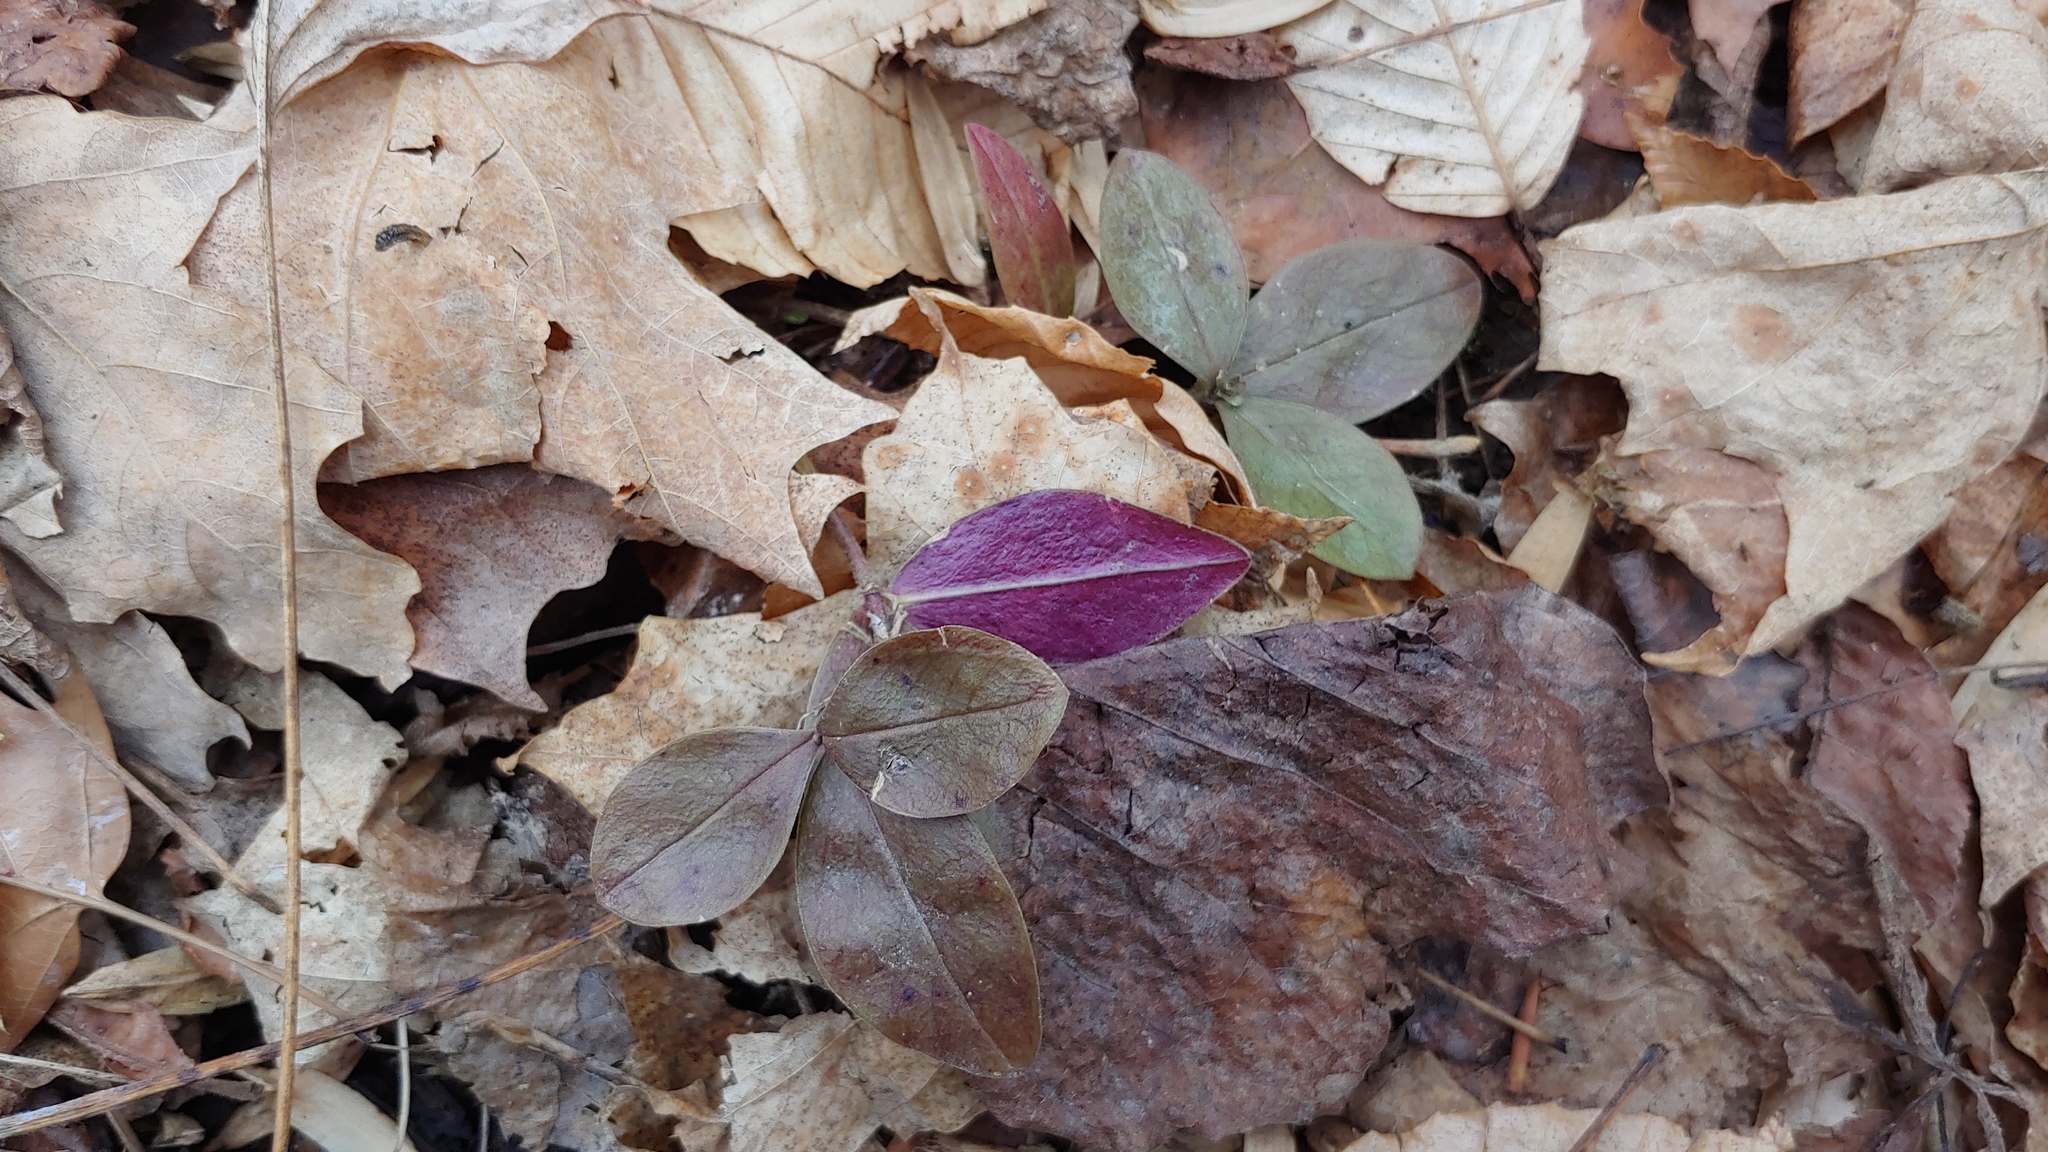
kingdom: Plantae
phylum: Tracheophyta
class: Magnoliopsida
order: Ericales
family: Polemoniaceae
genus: Phlox
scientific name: Phlox divaricata
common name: Blue phlox
